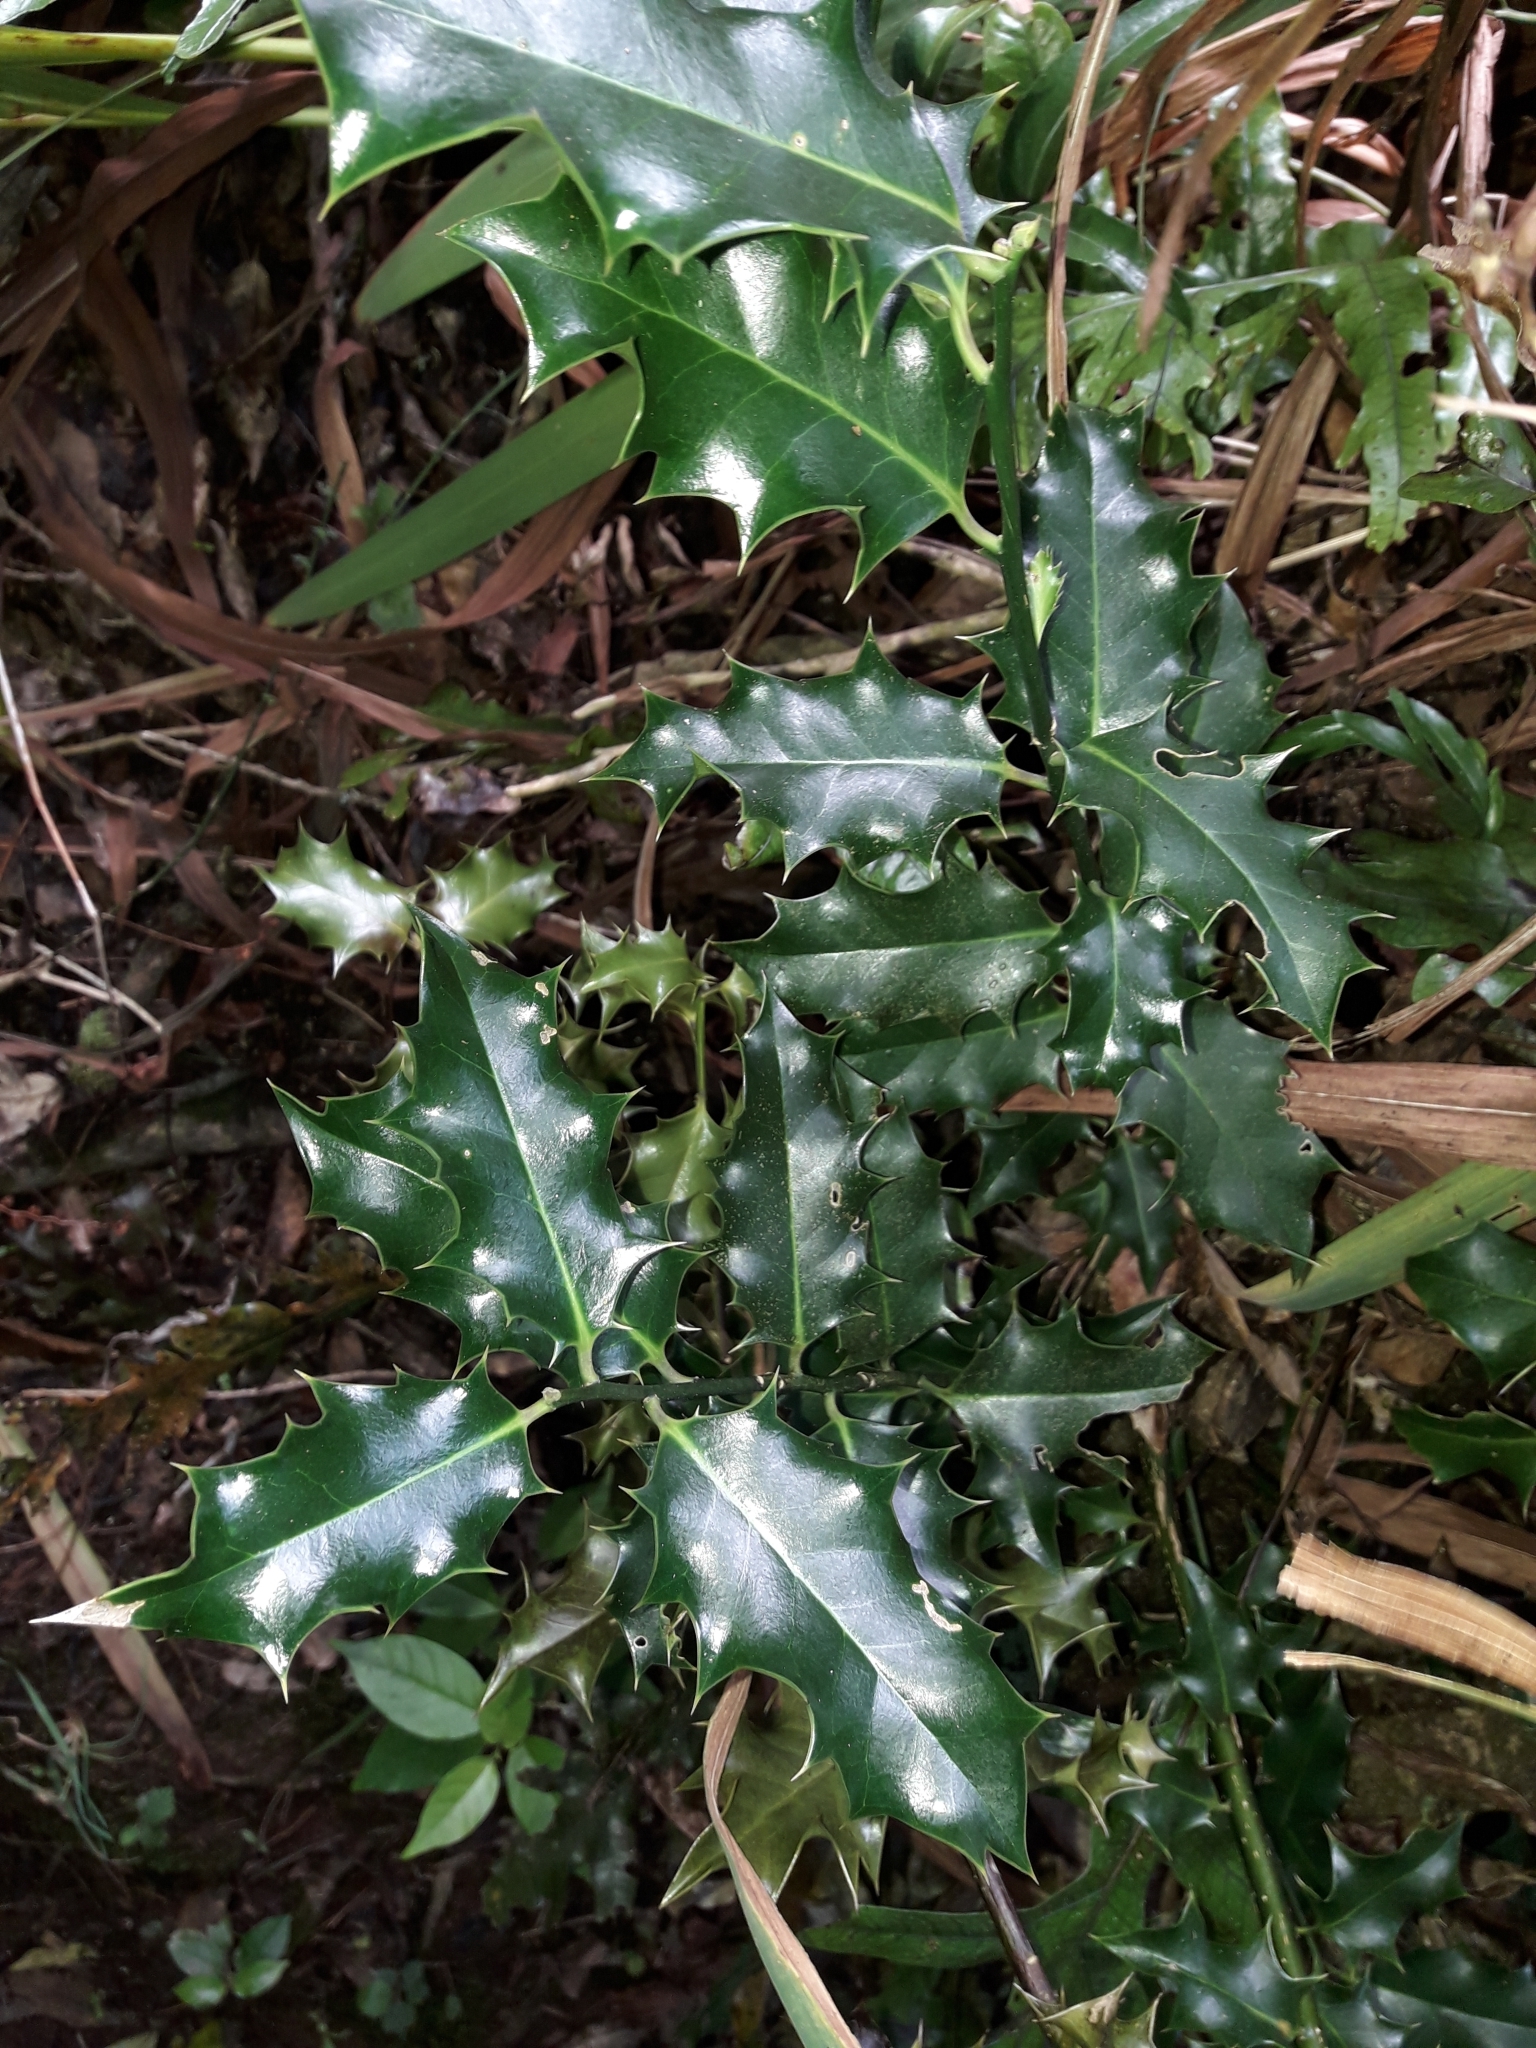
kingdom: Plantae
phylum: Tracheophyta
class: Magnoliopsida
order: Aquifoliales
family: Aquifoliaceae
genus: Ilex
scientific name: Ilex aquifolium
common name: English holly
